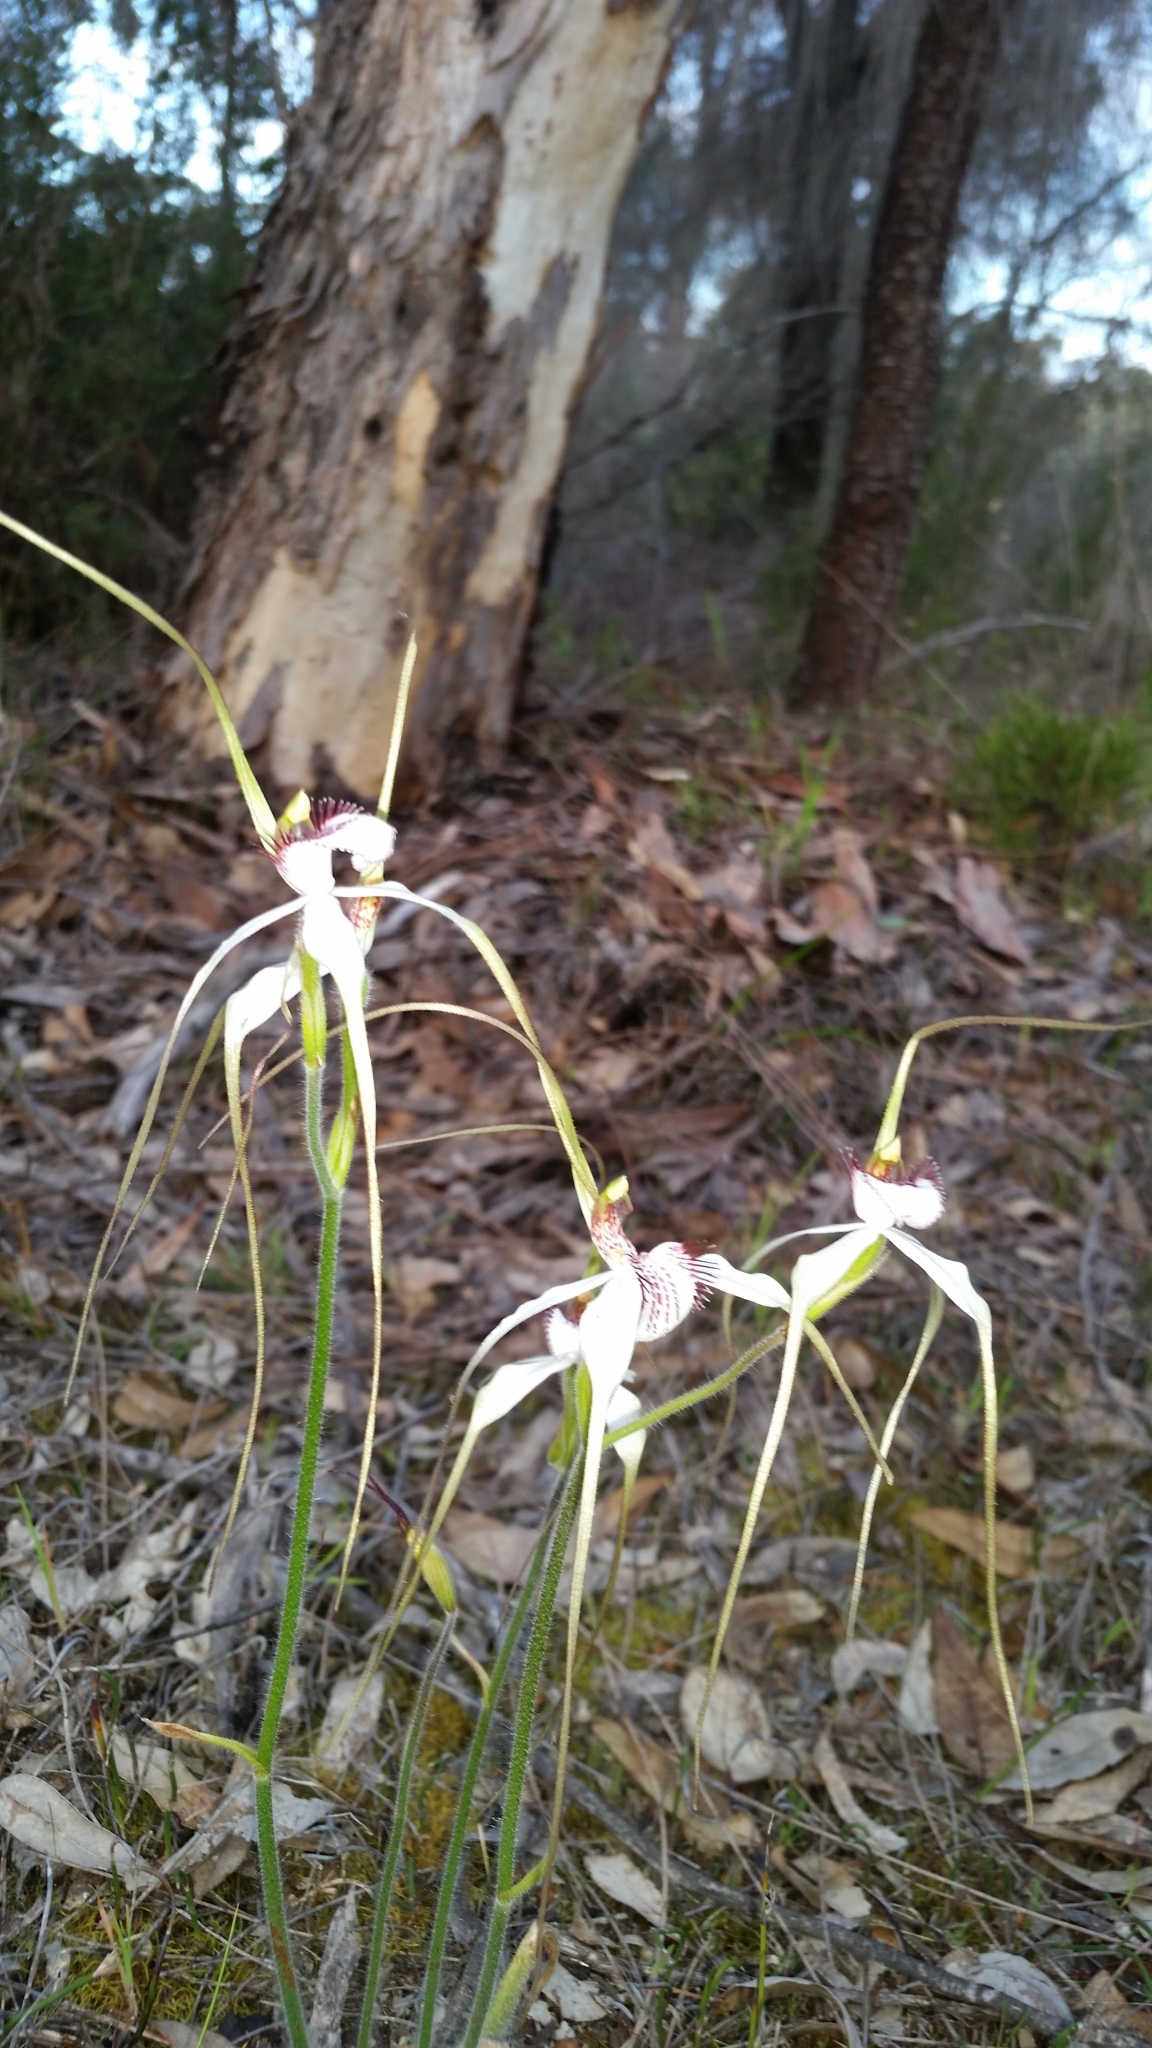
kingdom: Plantae
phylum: Tracheophyta
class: Liliopsida
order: Asparagales
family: Orchidaceae
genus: Caladenia
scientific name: Caladenia longicauda
